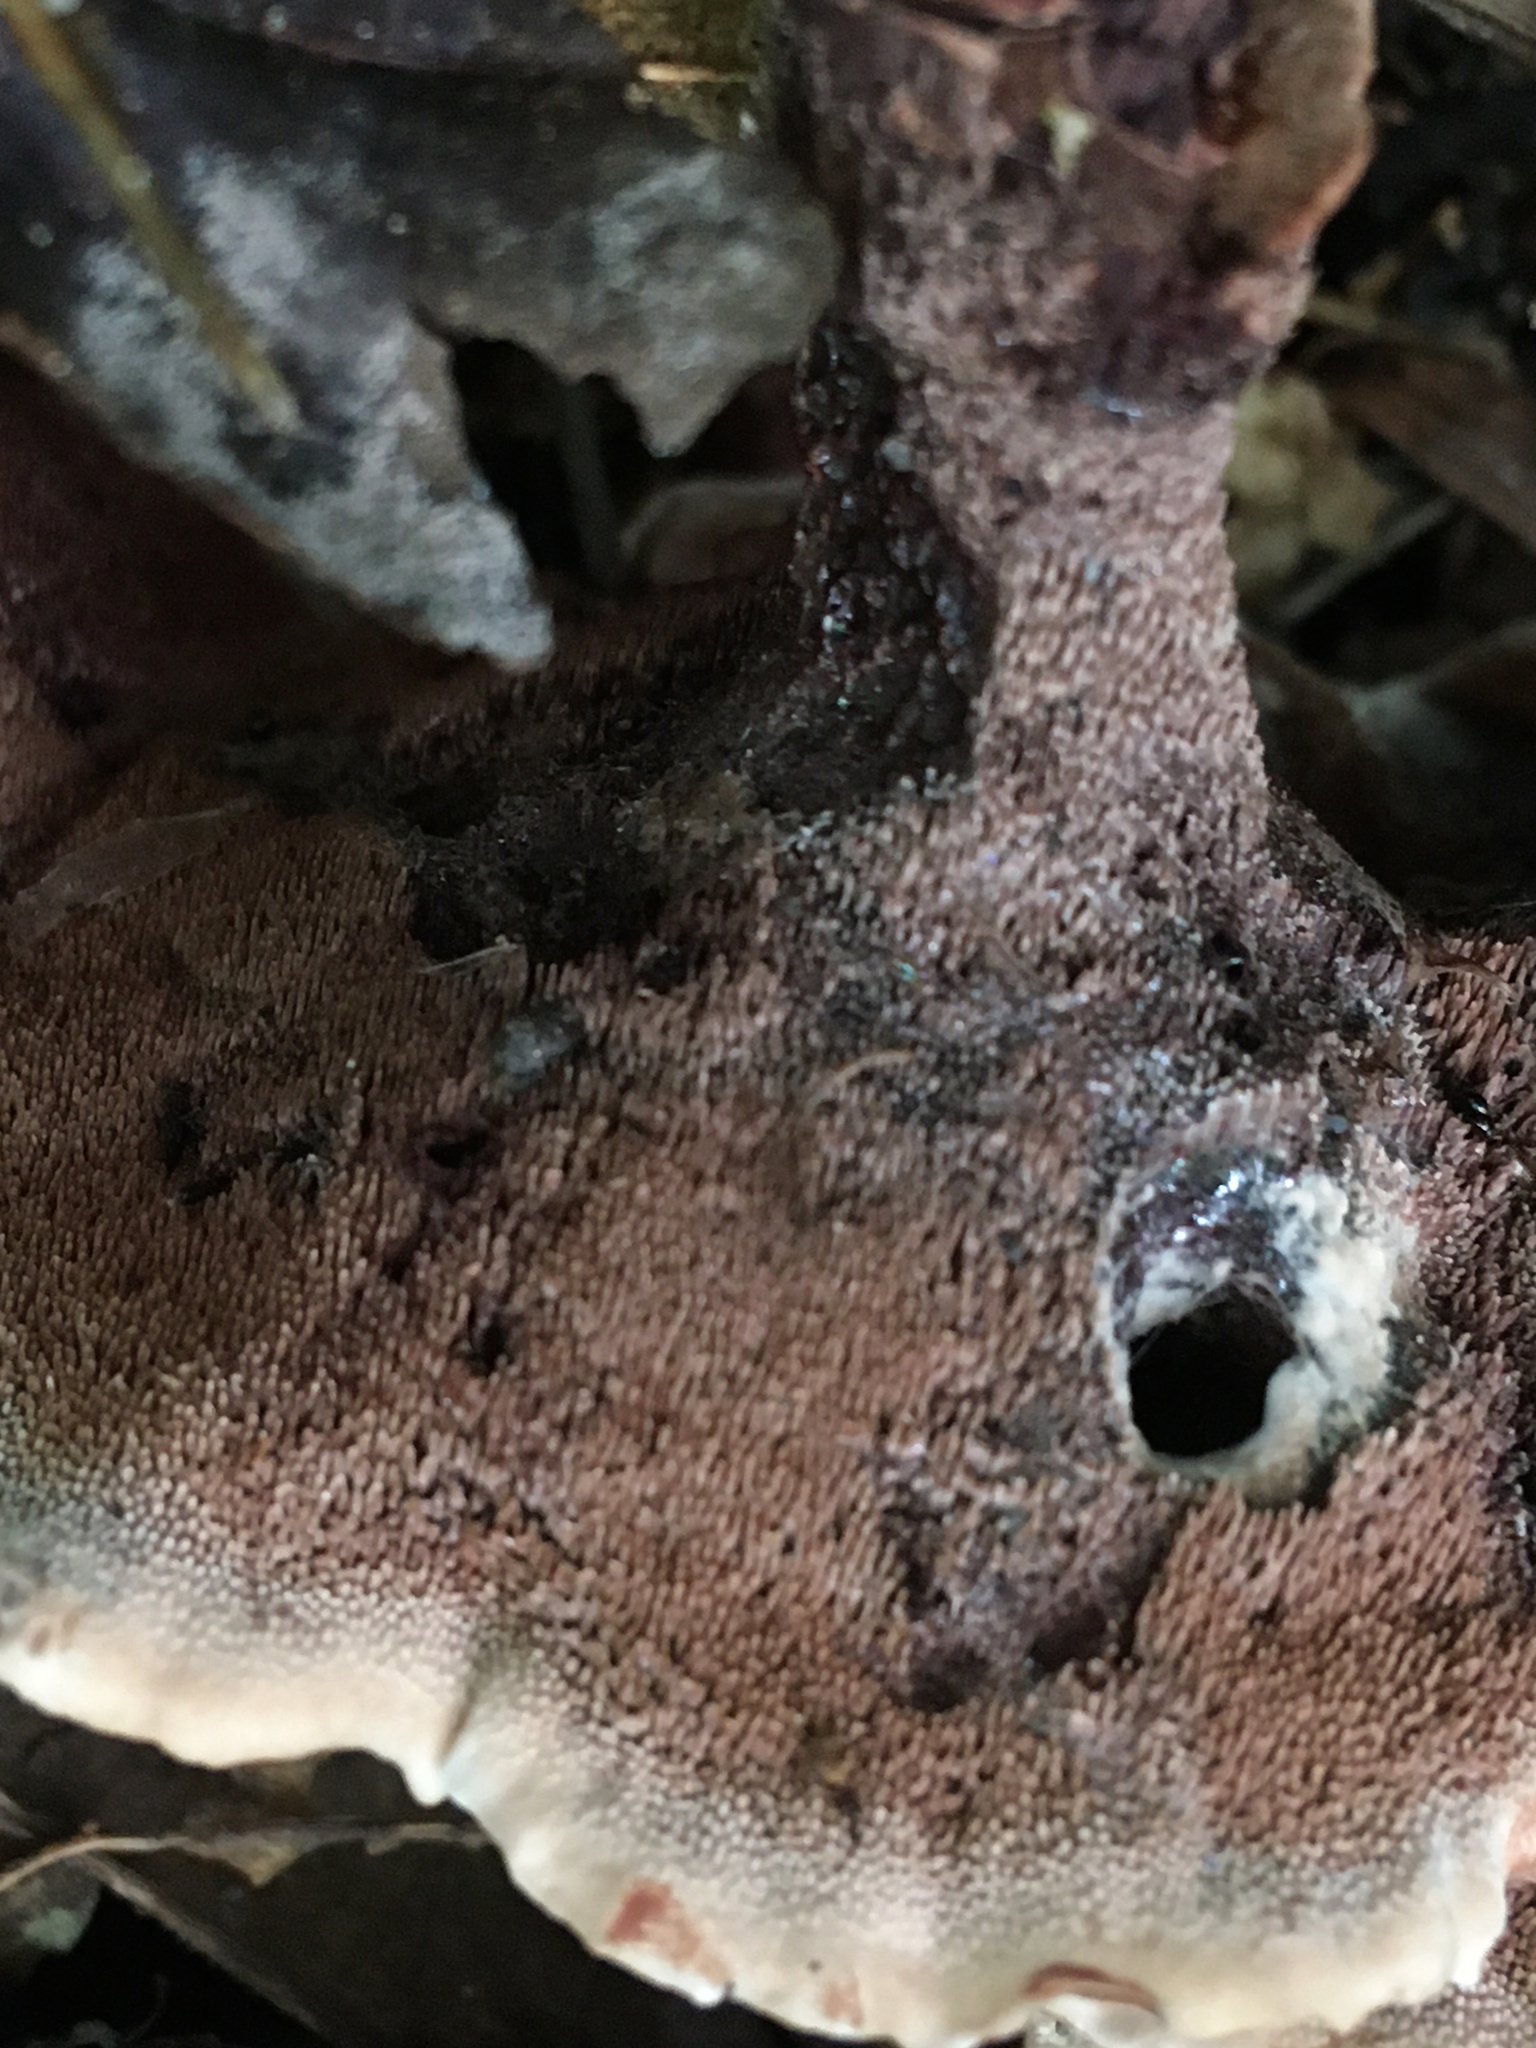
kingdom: Fungi
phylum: Basidiomycota
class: Agaricomycetes
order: Thelephorales
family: Bankeraceae
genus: Hydnellum
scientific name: Hydnellum concrescens
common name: Zoned tooth
